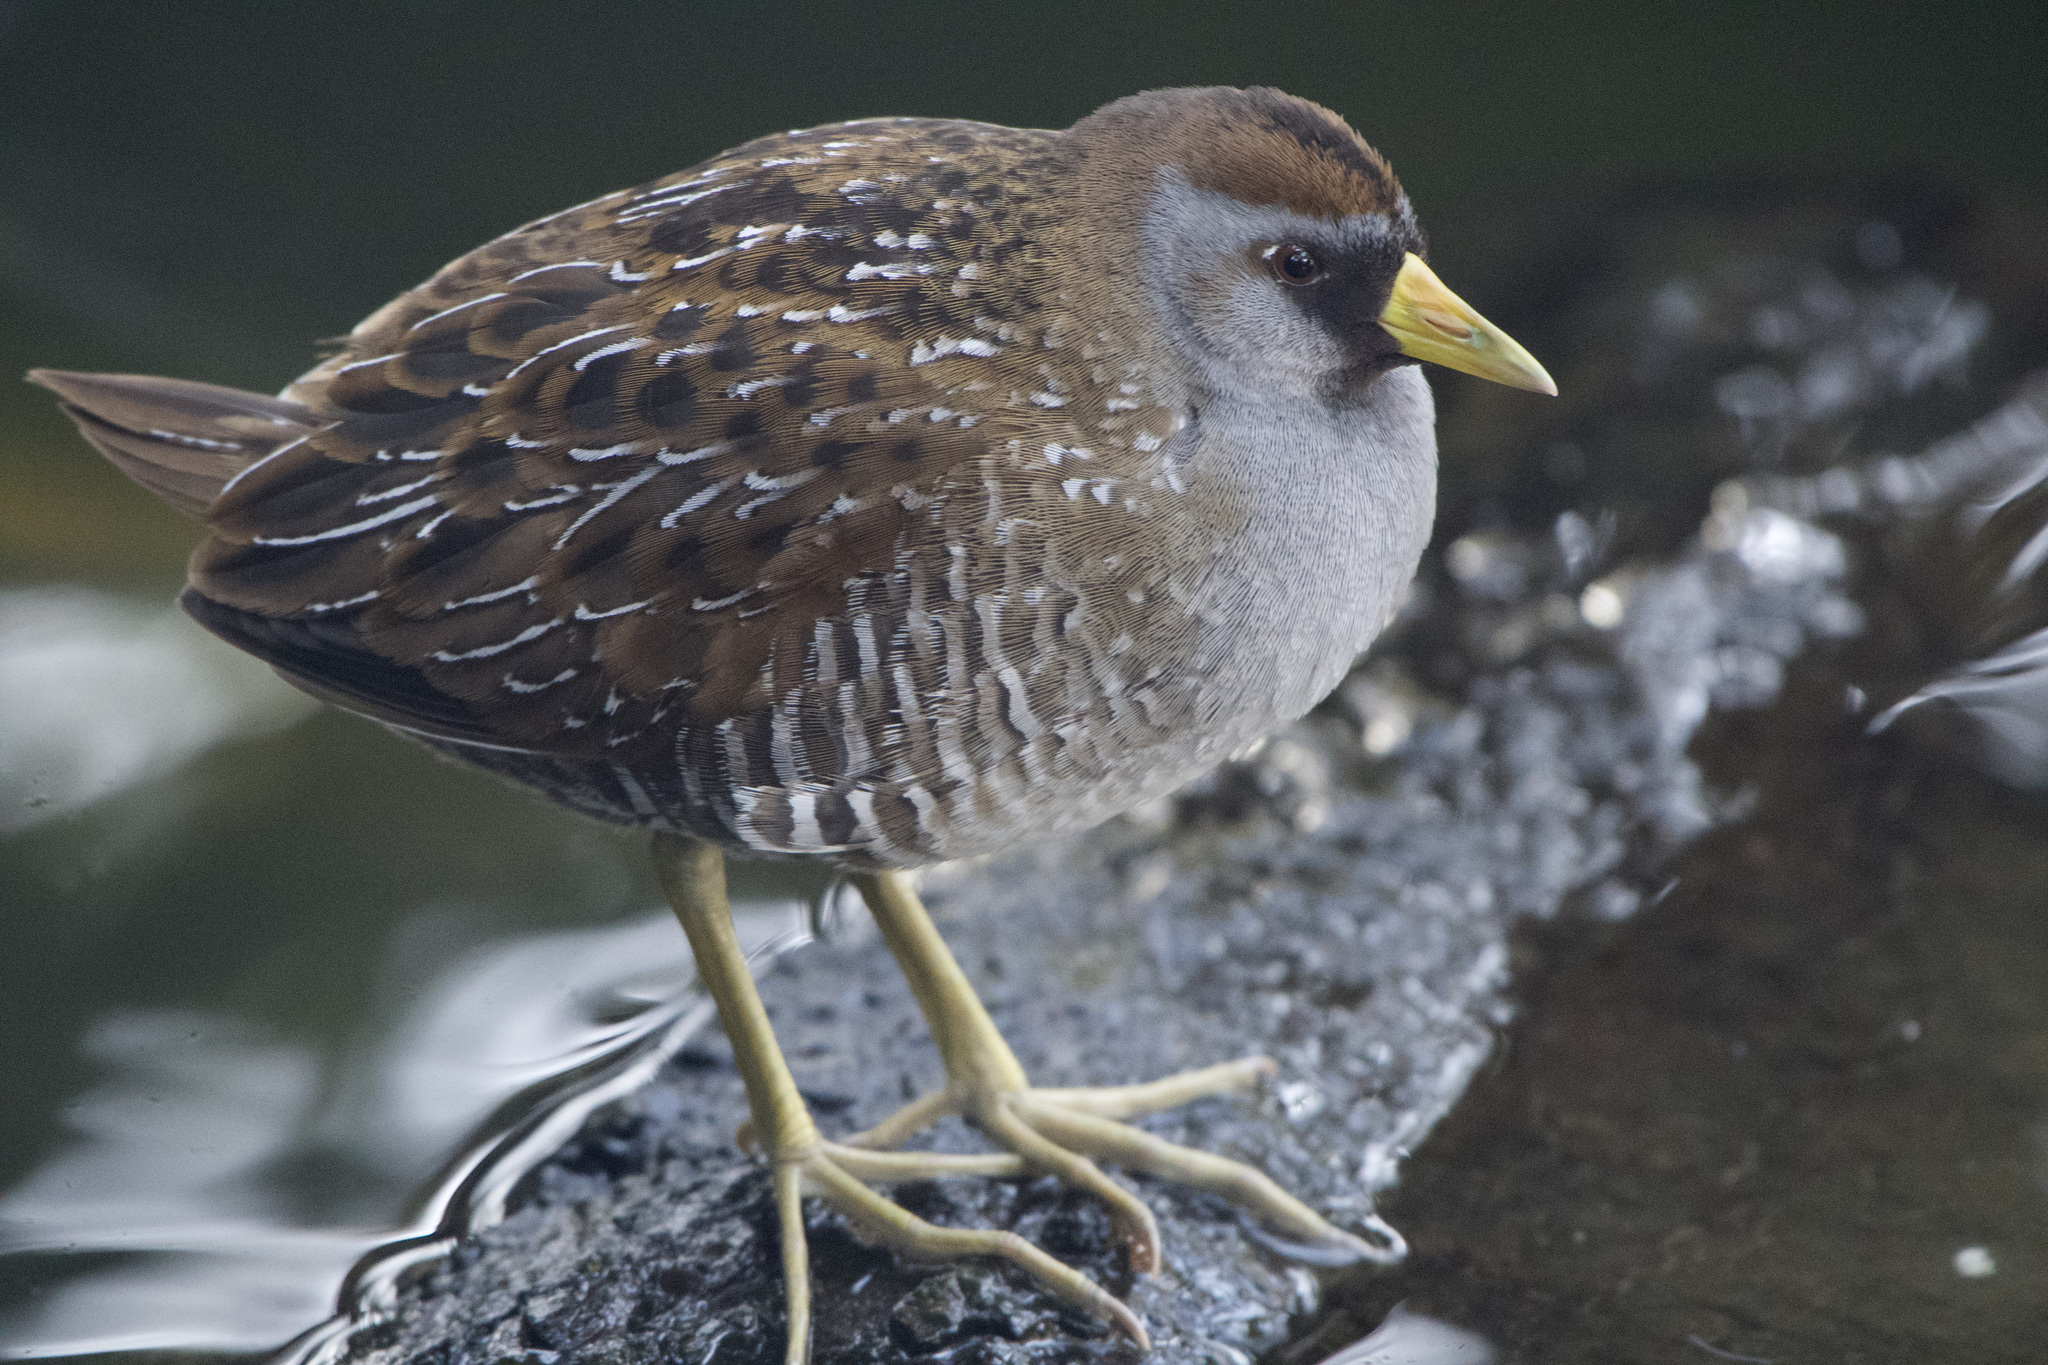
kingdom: Animalia
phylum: Chordata
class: Aves
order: Gruiformes
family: Rallidae
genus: Porzana
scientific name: Porzana carolina
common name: Sora
